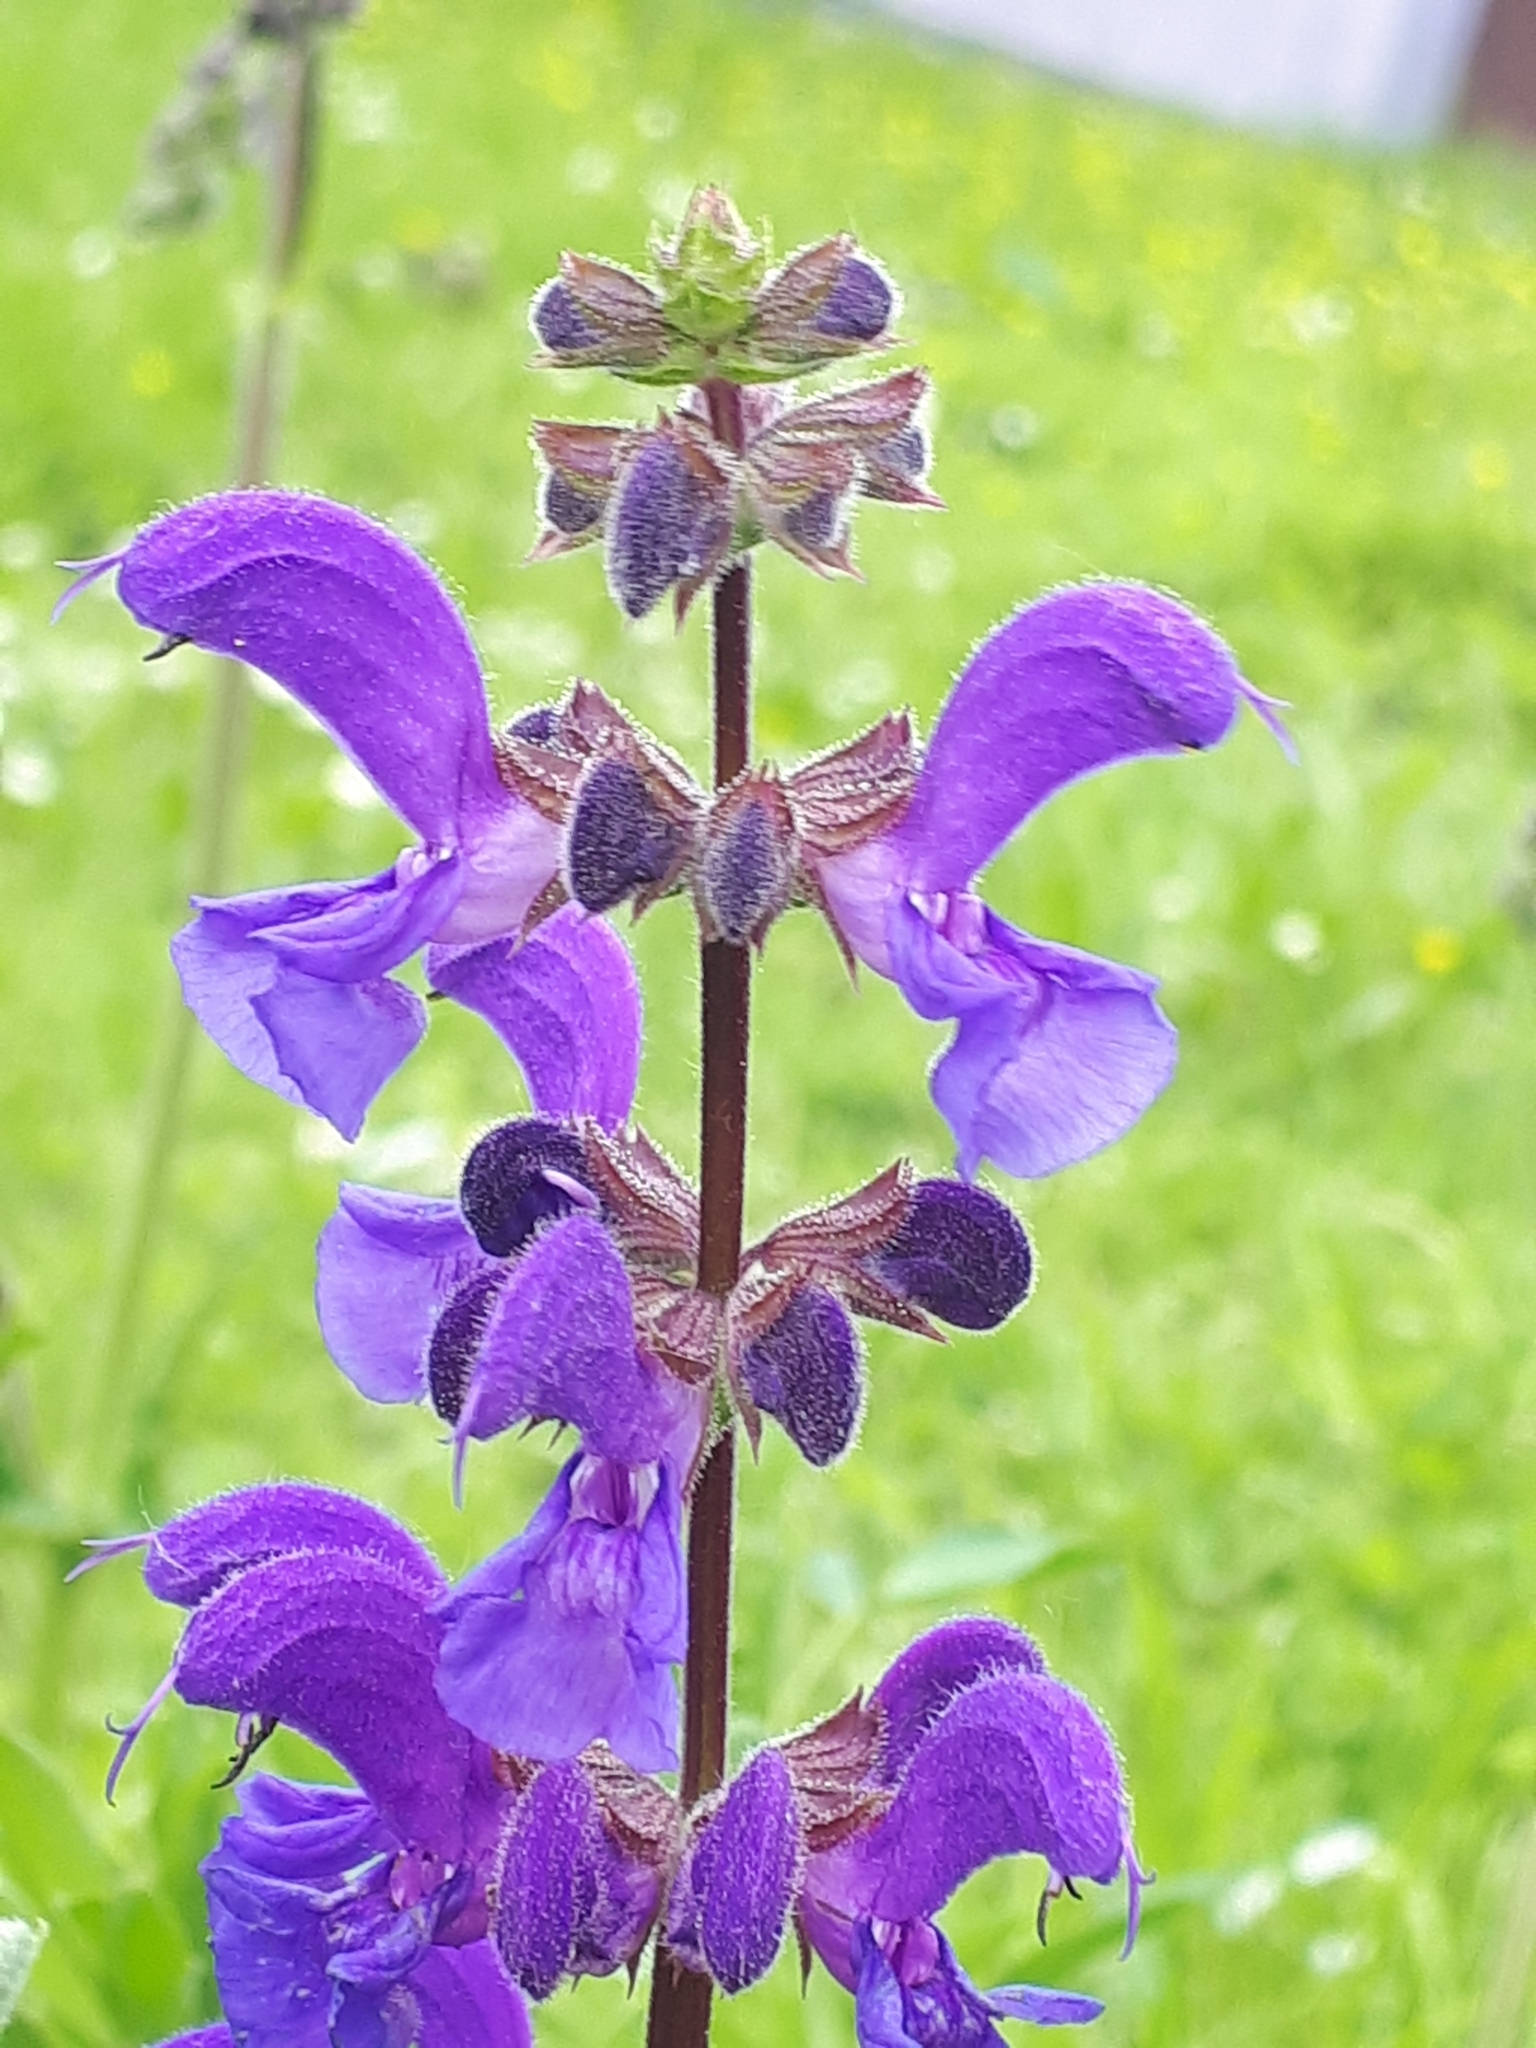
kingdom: Plantae
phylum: Tracheophyta
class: Magnoliopsida
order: Lamiales
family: Lamiaceae
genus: Salvia
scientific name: Salvia pratensis
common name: Meadow sage
